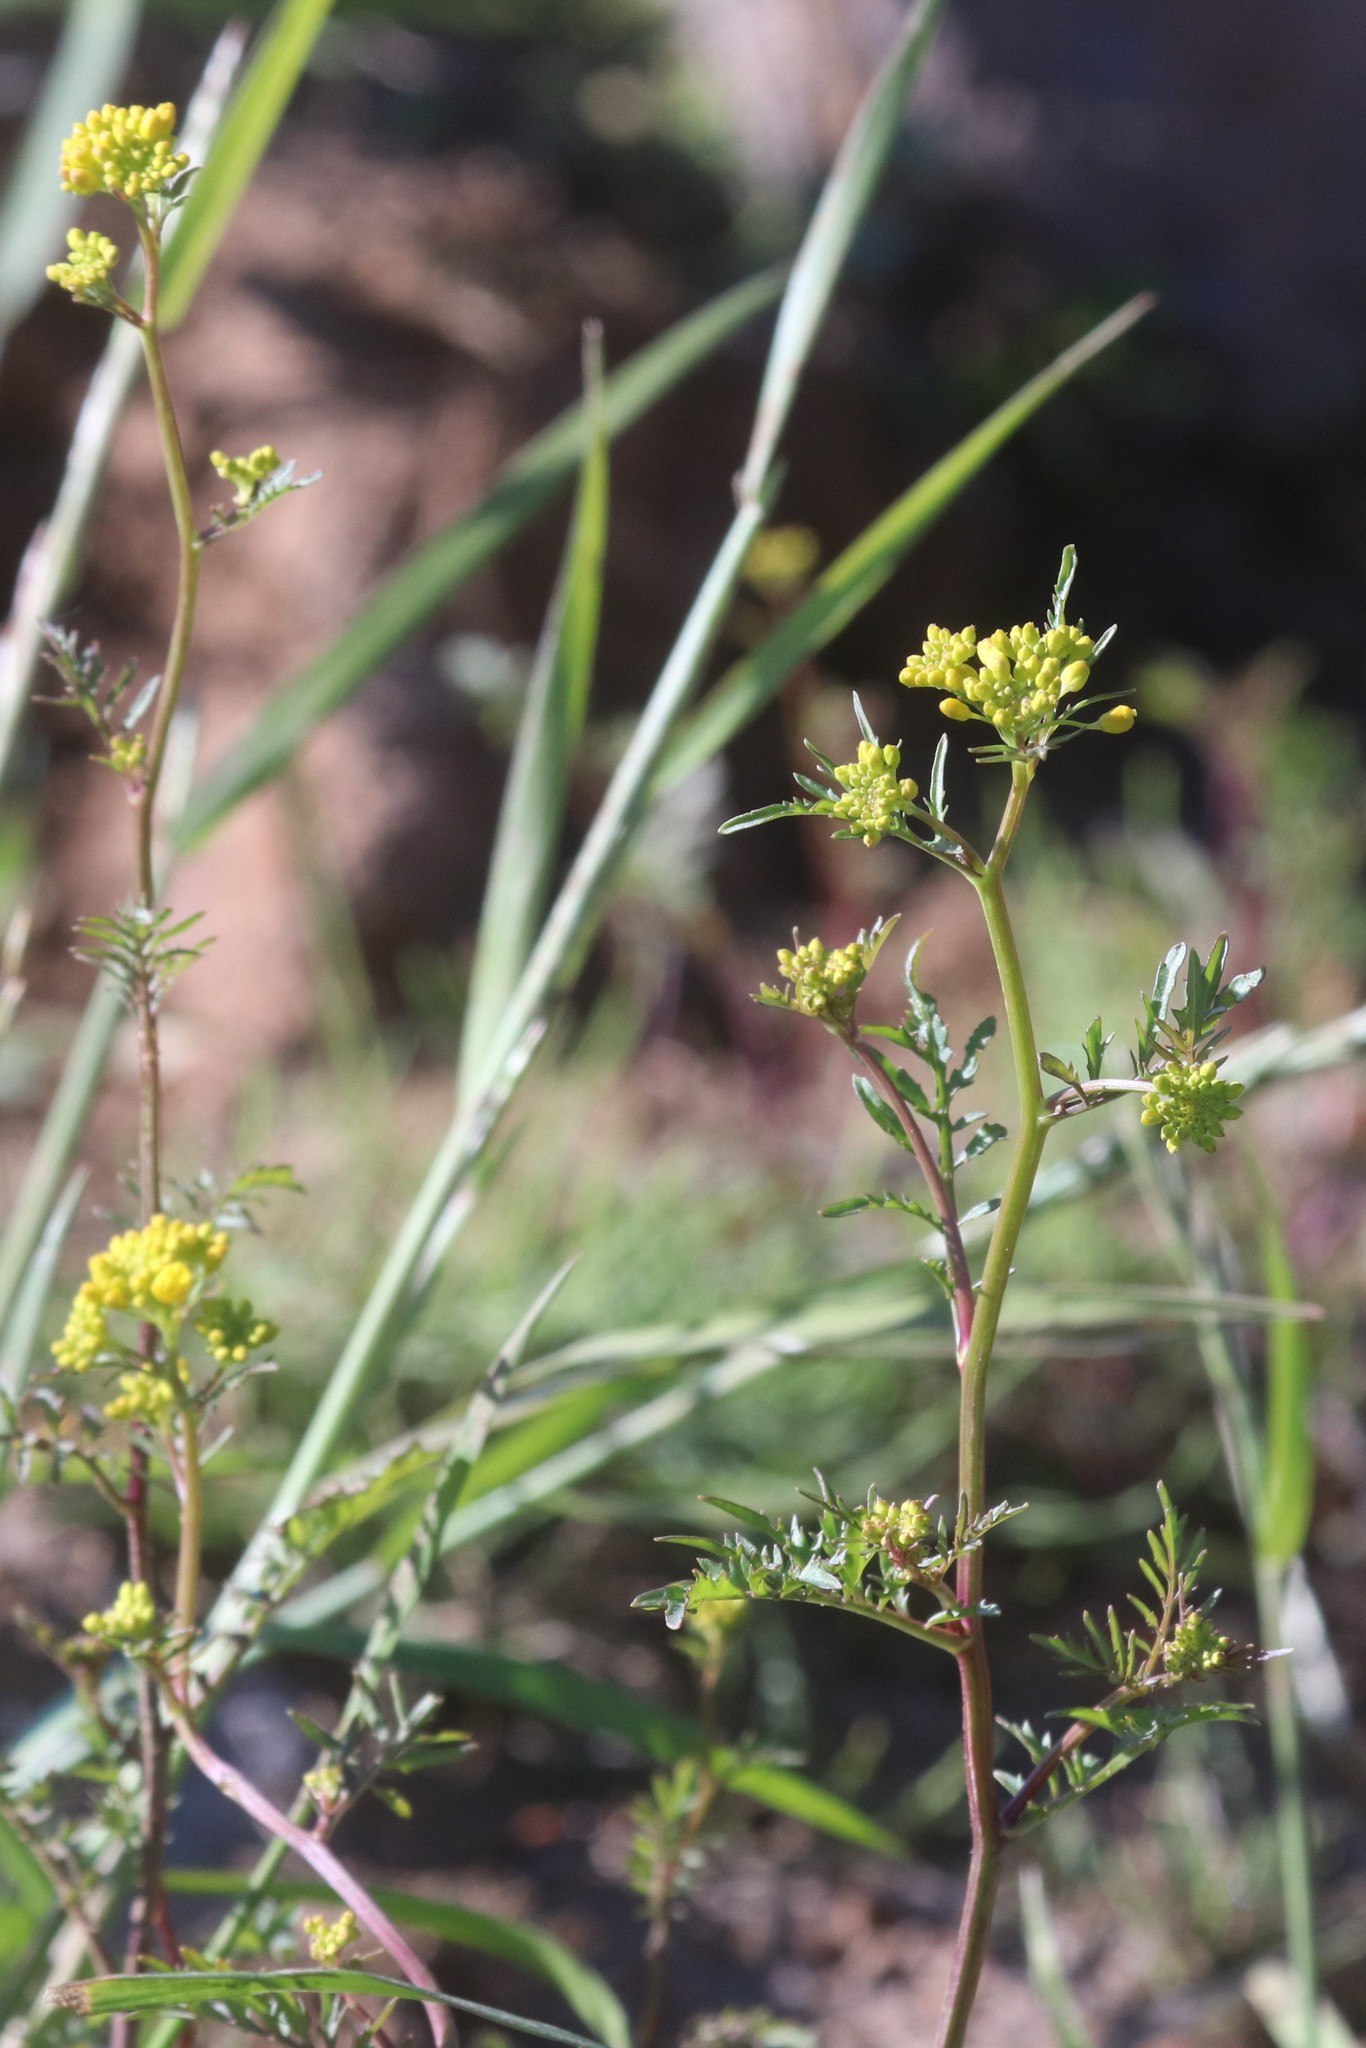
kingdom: Plantae
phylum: Tracheophyta
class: Magnoliopsida
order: Brassicales
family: Brassicaceae
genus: Rorippa
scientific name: Rorippa palustris
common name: Marsh yellow-cress
